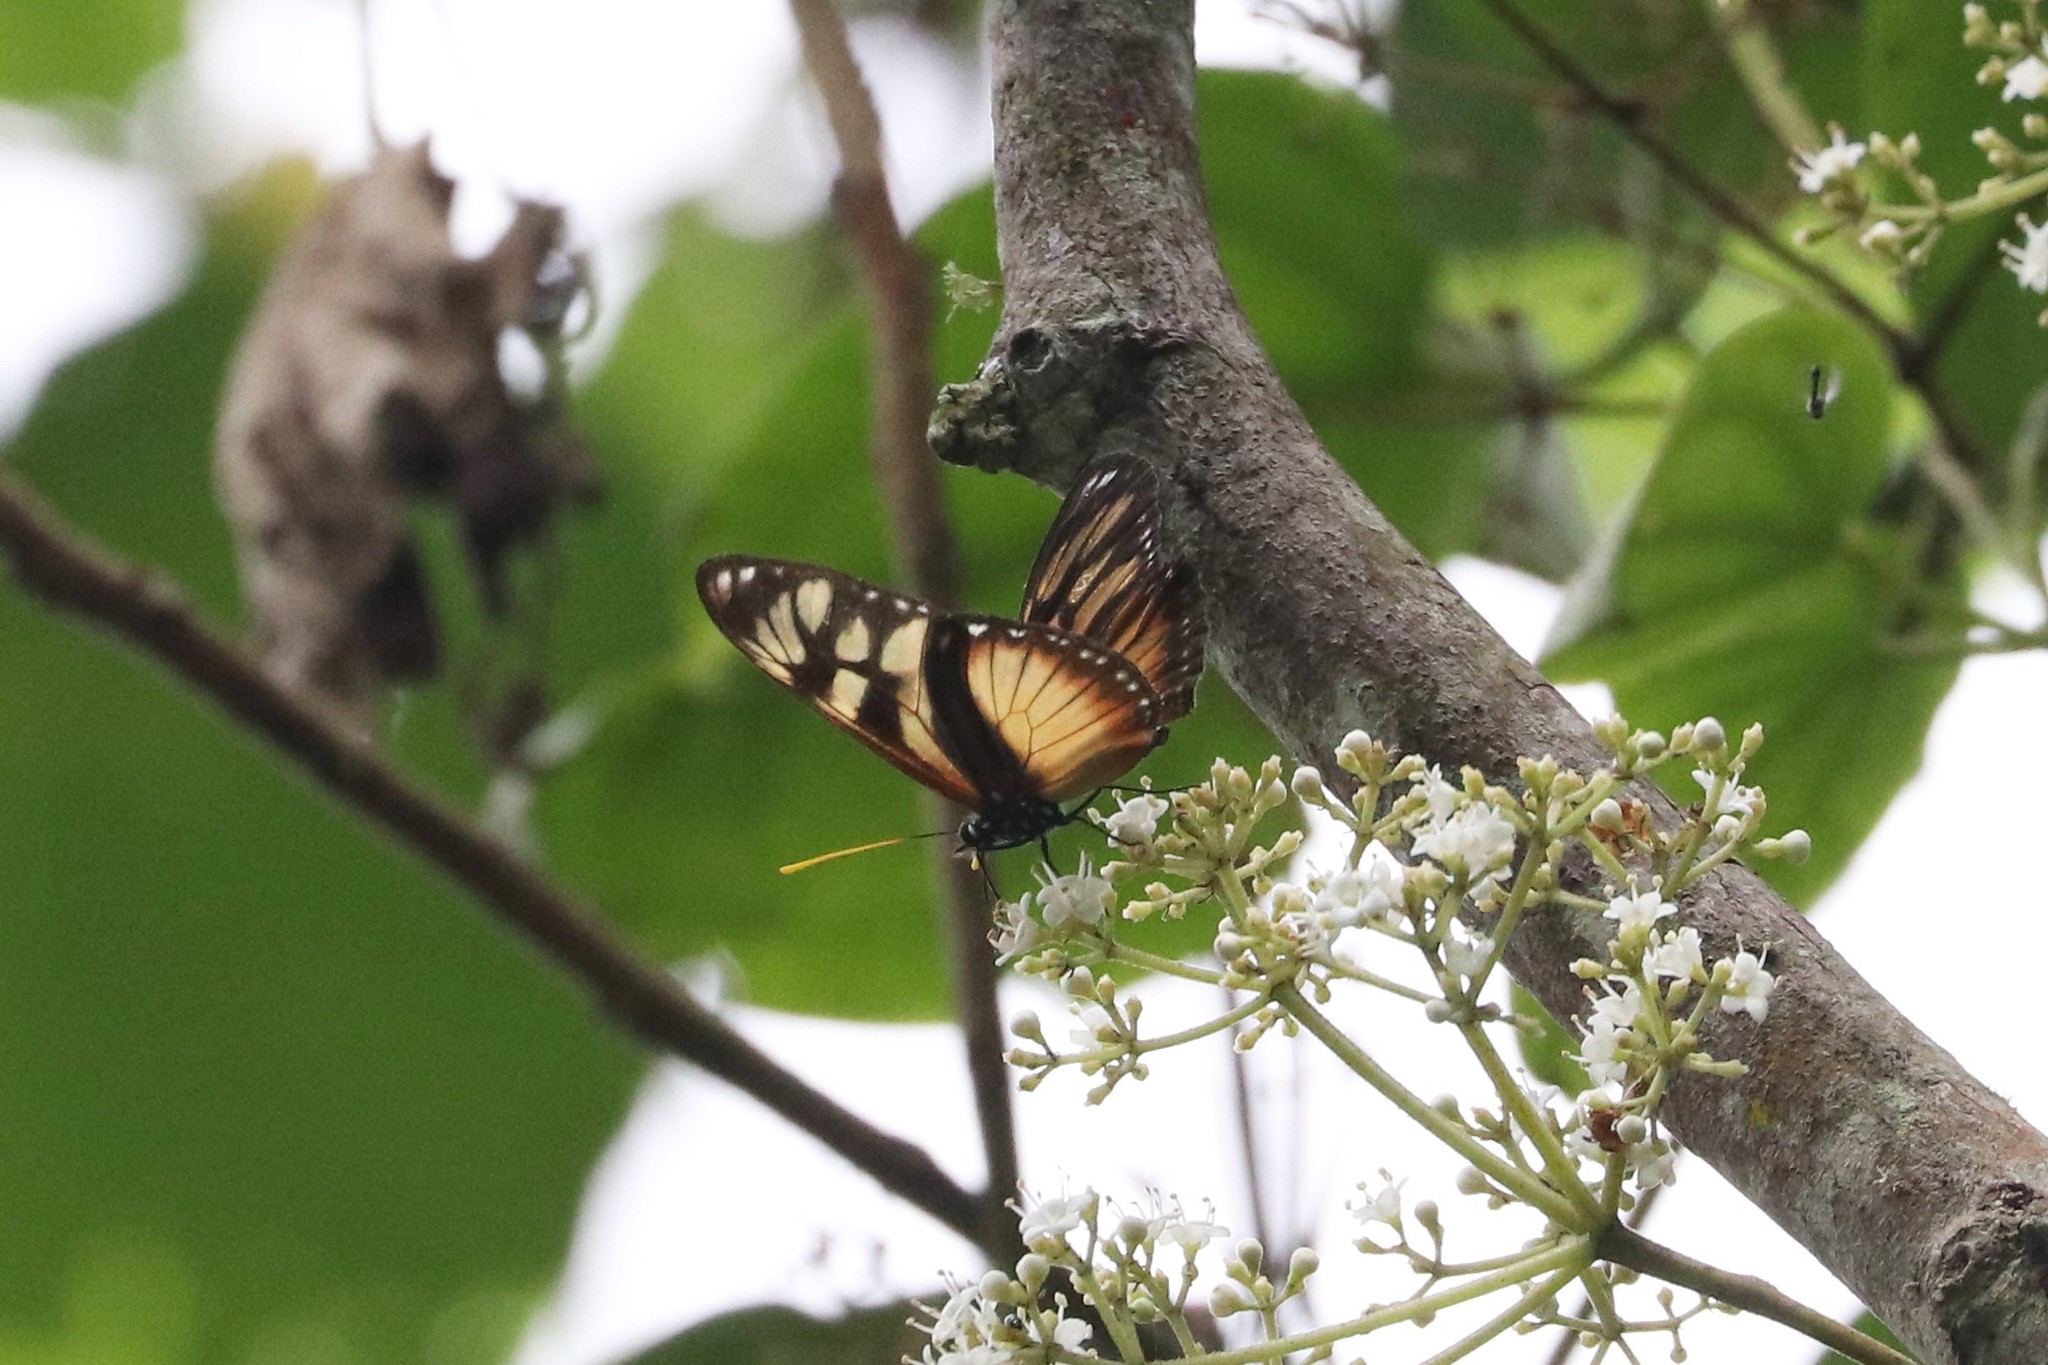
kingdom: Animalia
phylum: Arthropoda
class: Insecta
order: Lepidoptera
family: Nymphalidae
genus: Eueides
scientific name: Eueides procula
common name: Nonpassionate heliconian
